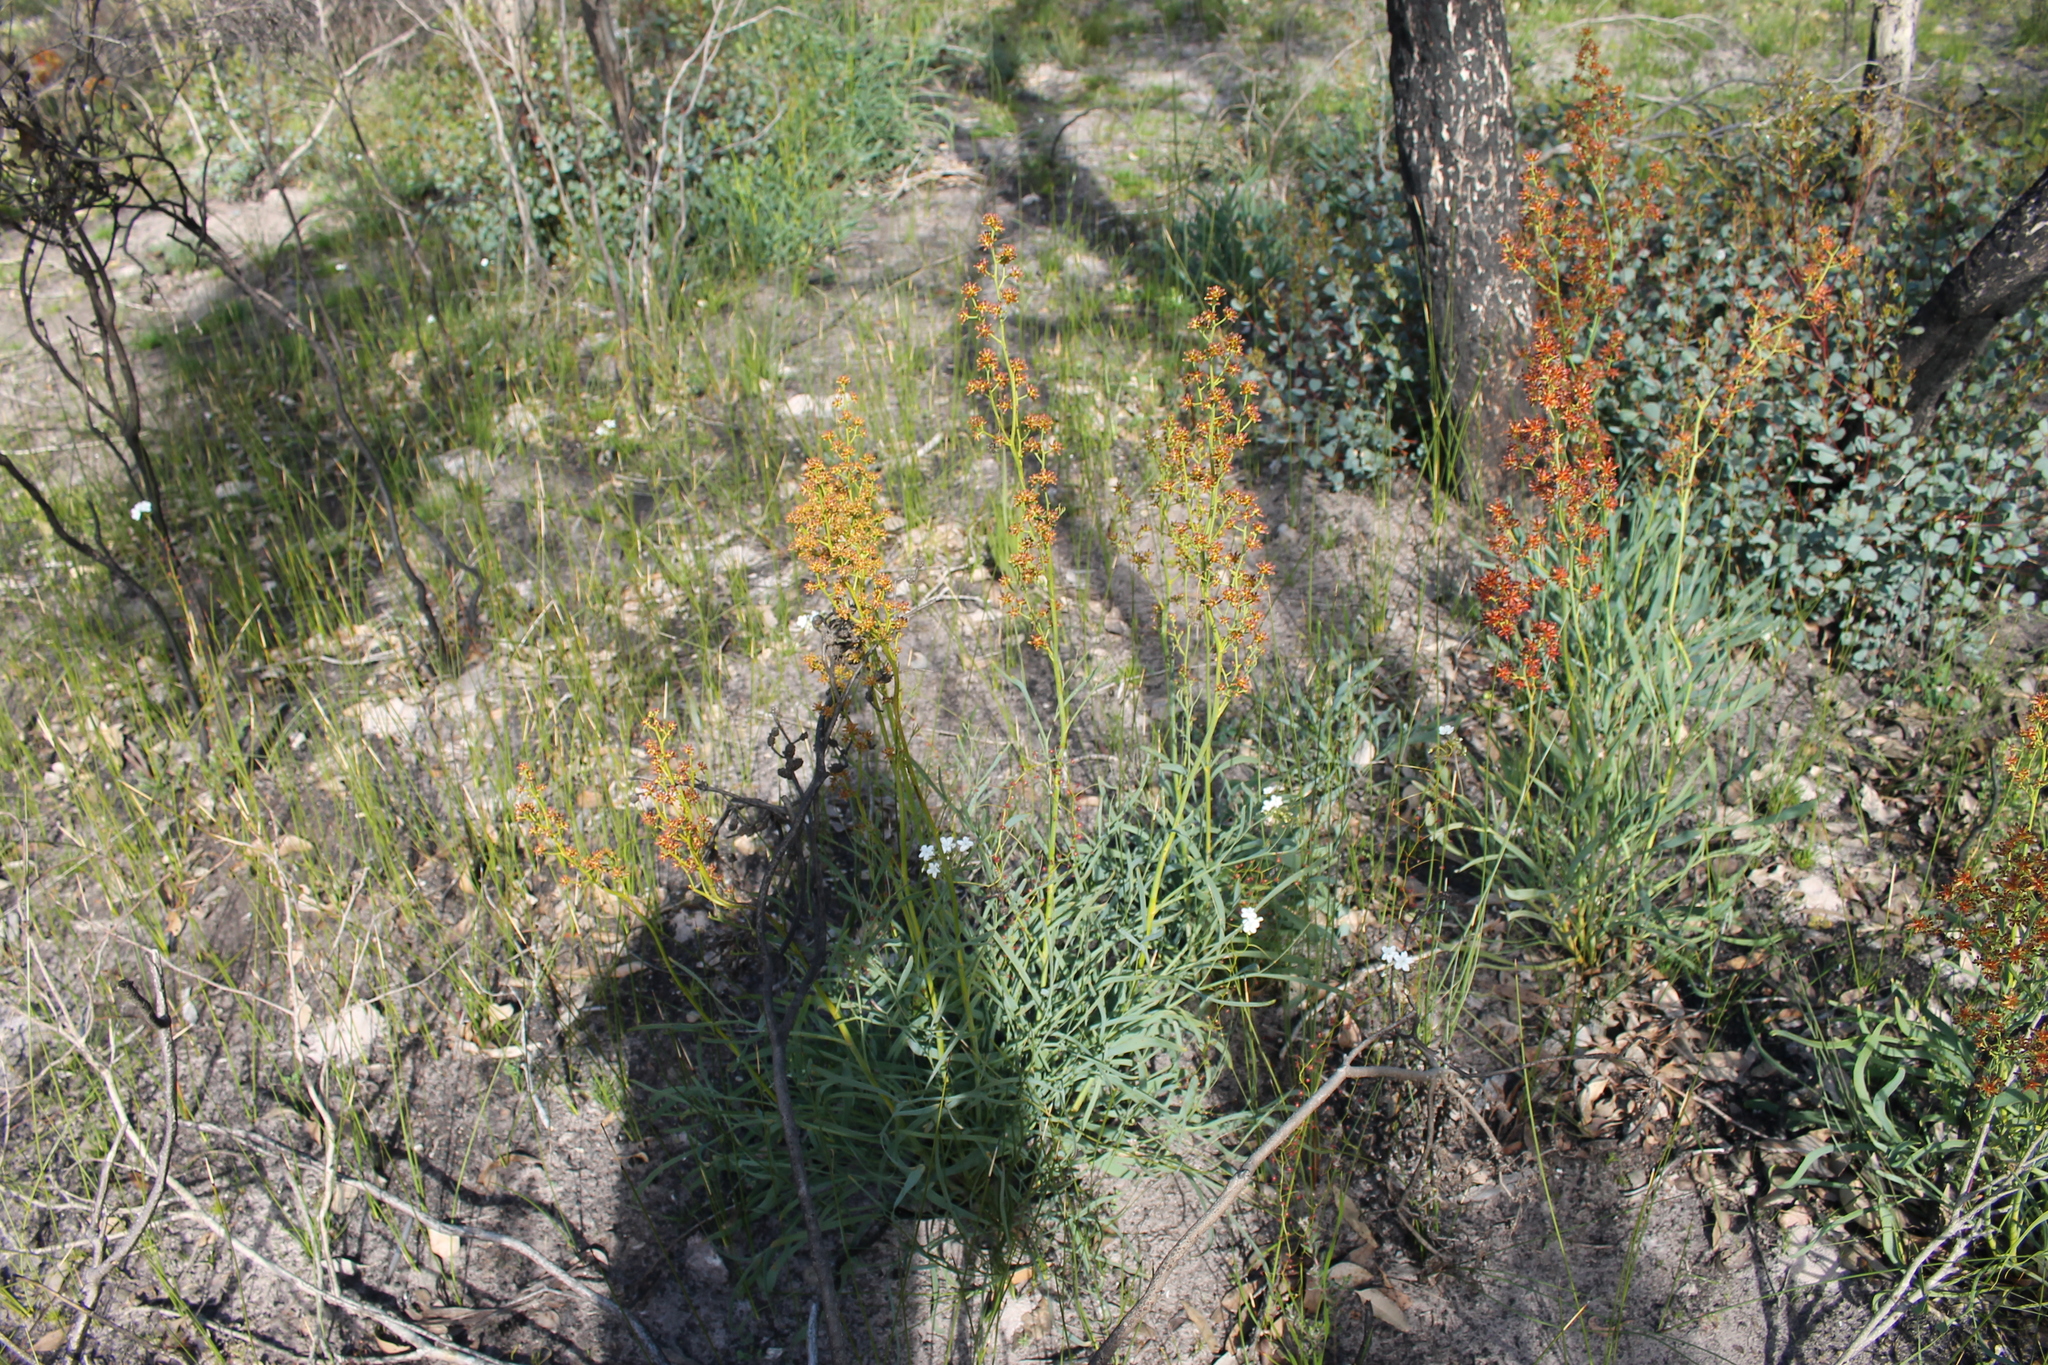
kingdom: Plantae
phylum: Tracheophyta
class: Magnoliopsida
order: Proteales
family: Proteaceae
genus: Stirlingia
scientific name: Stirlingia latifolia
